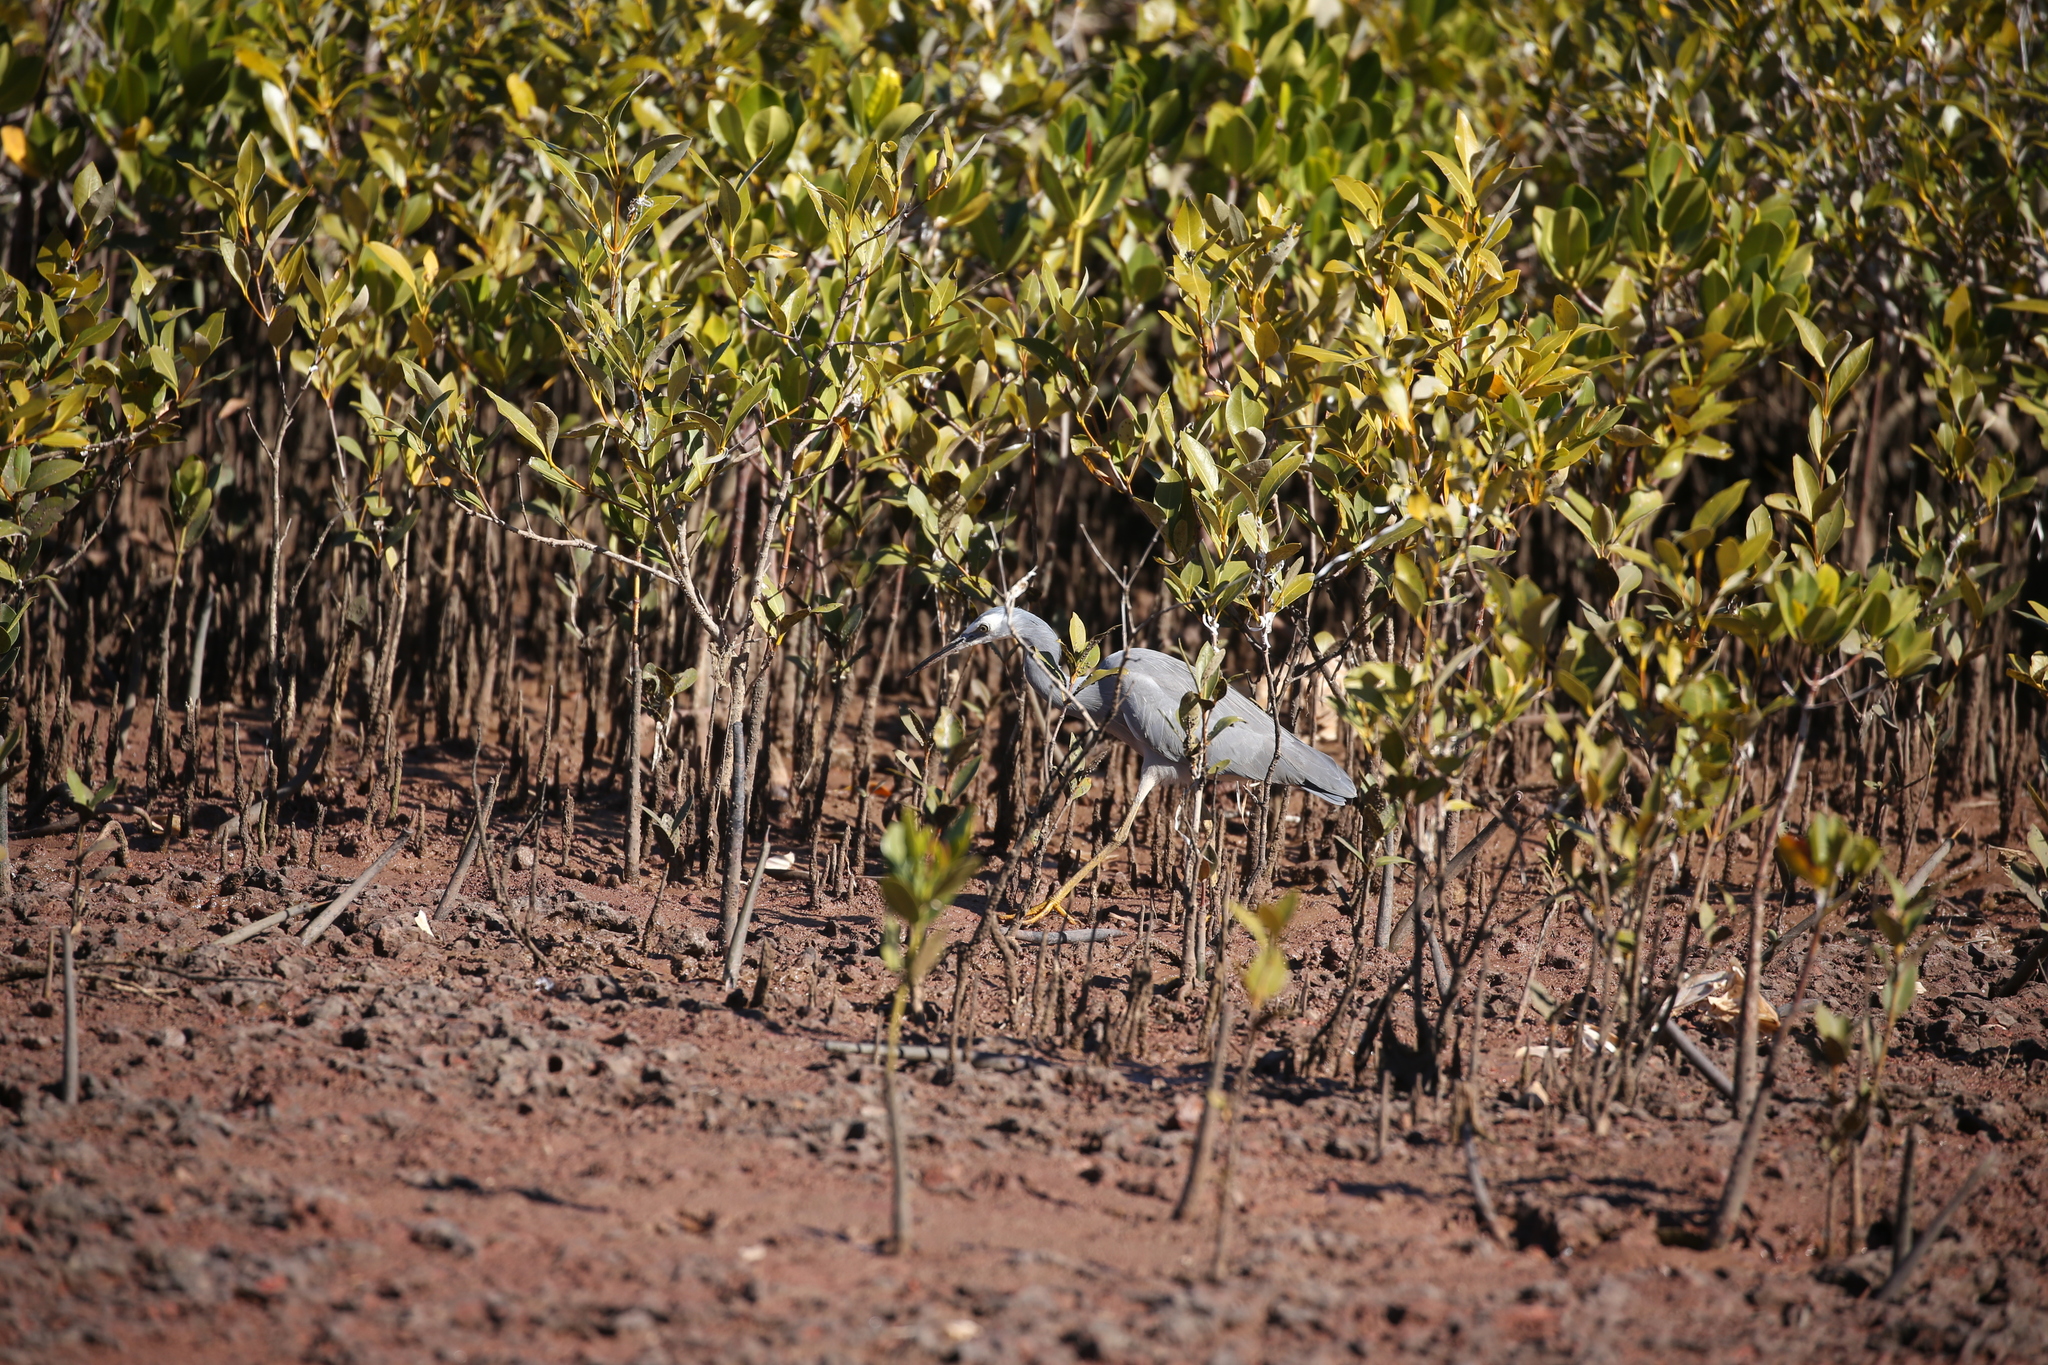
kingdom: Animalia
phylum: Chordata
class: Aves
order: Pelecaniformes
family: Ardeidae
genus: Egretta
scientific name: Egretta novaehollandiae
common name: White-faced heron
